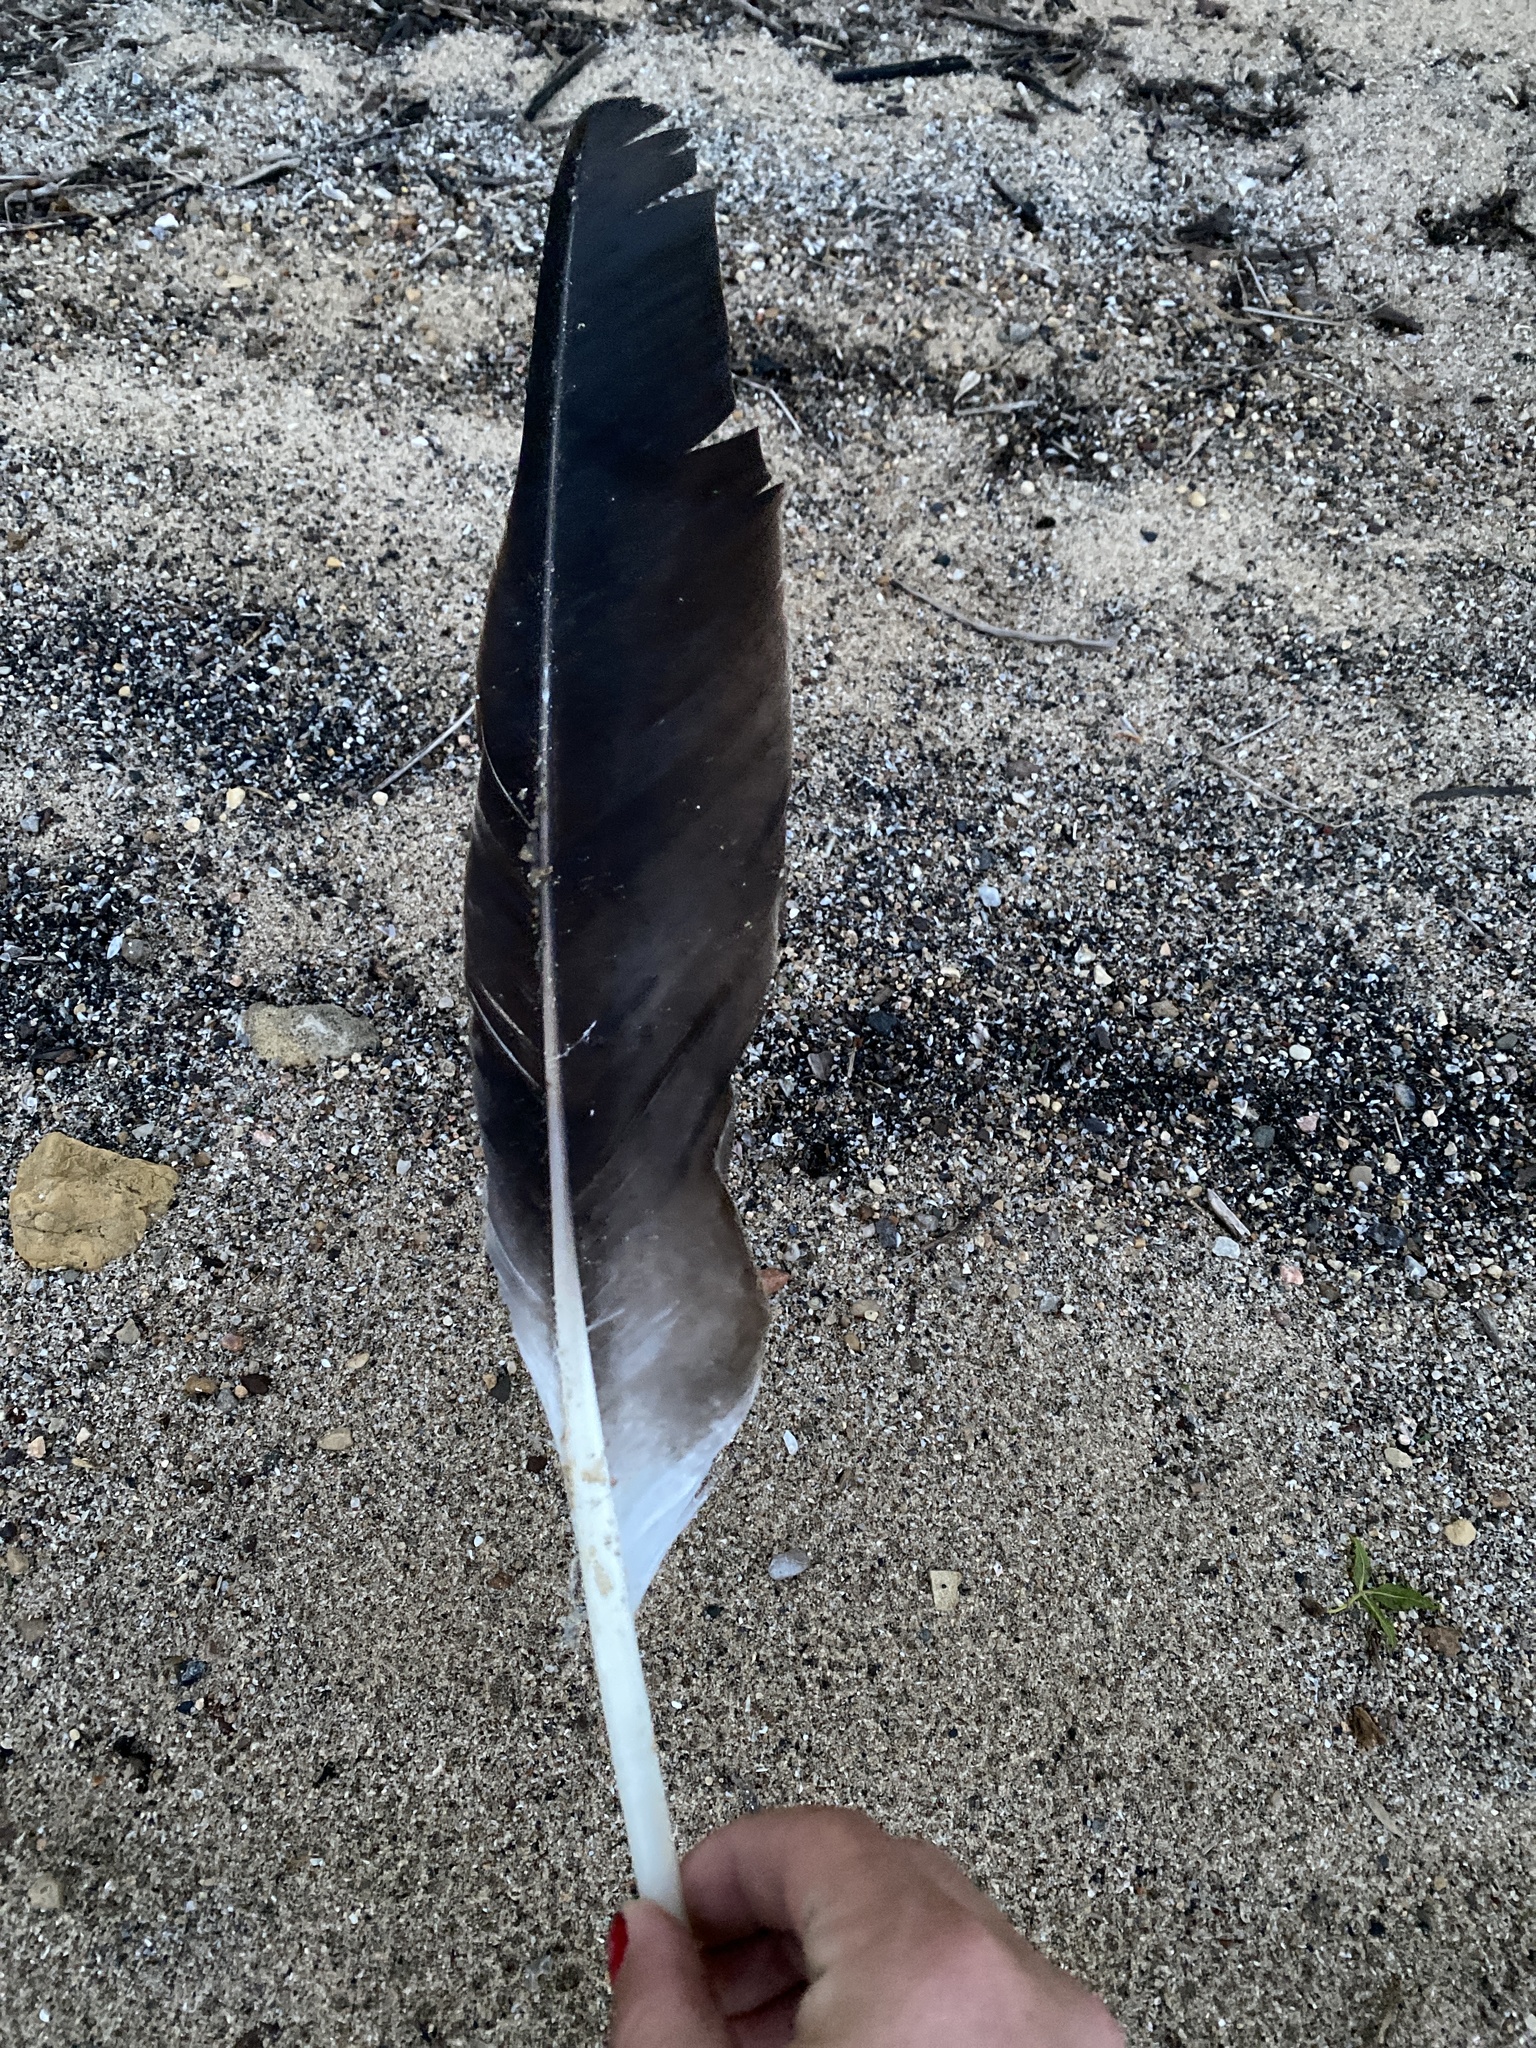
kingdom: Animalia
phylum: Chordata
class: Aves
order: Accipitriformes
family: Accipitridae
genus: Haliaeetus
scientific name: Haliaeetus leucocephalus
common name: Bald eagle
